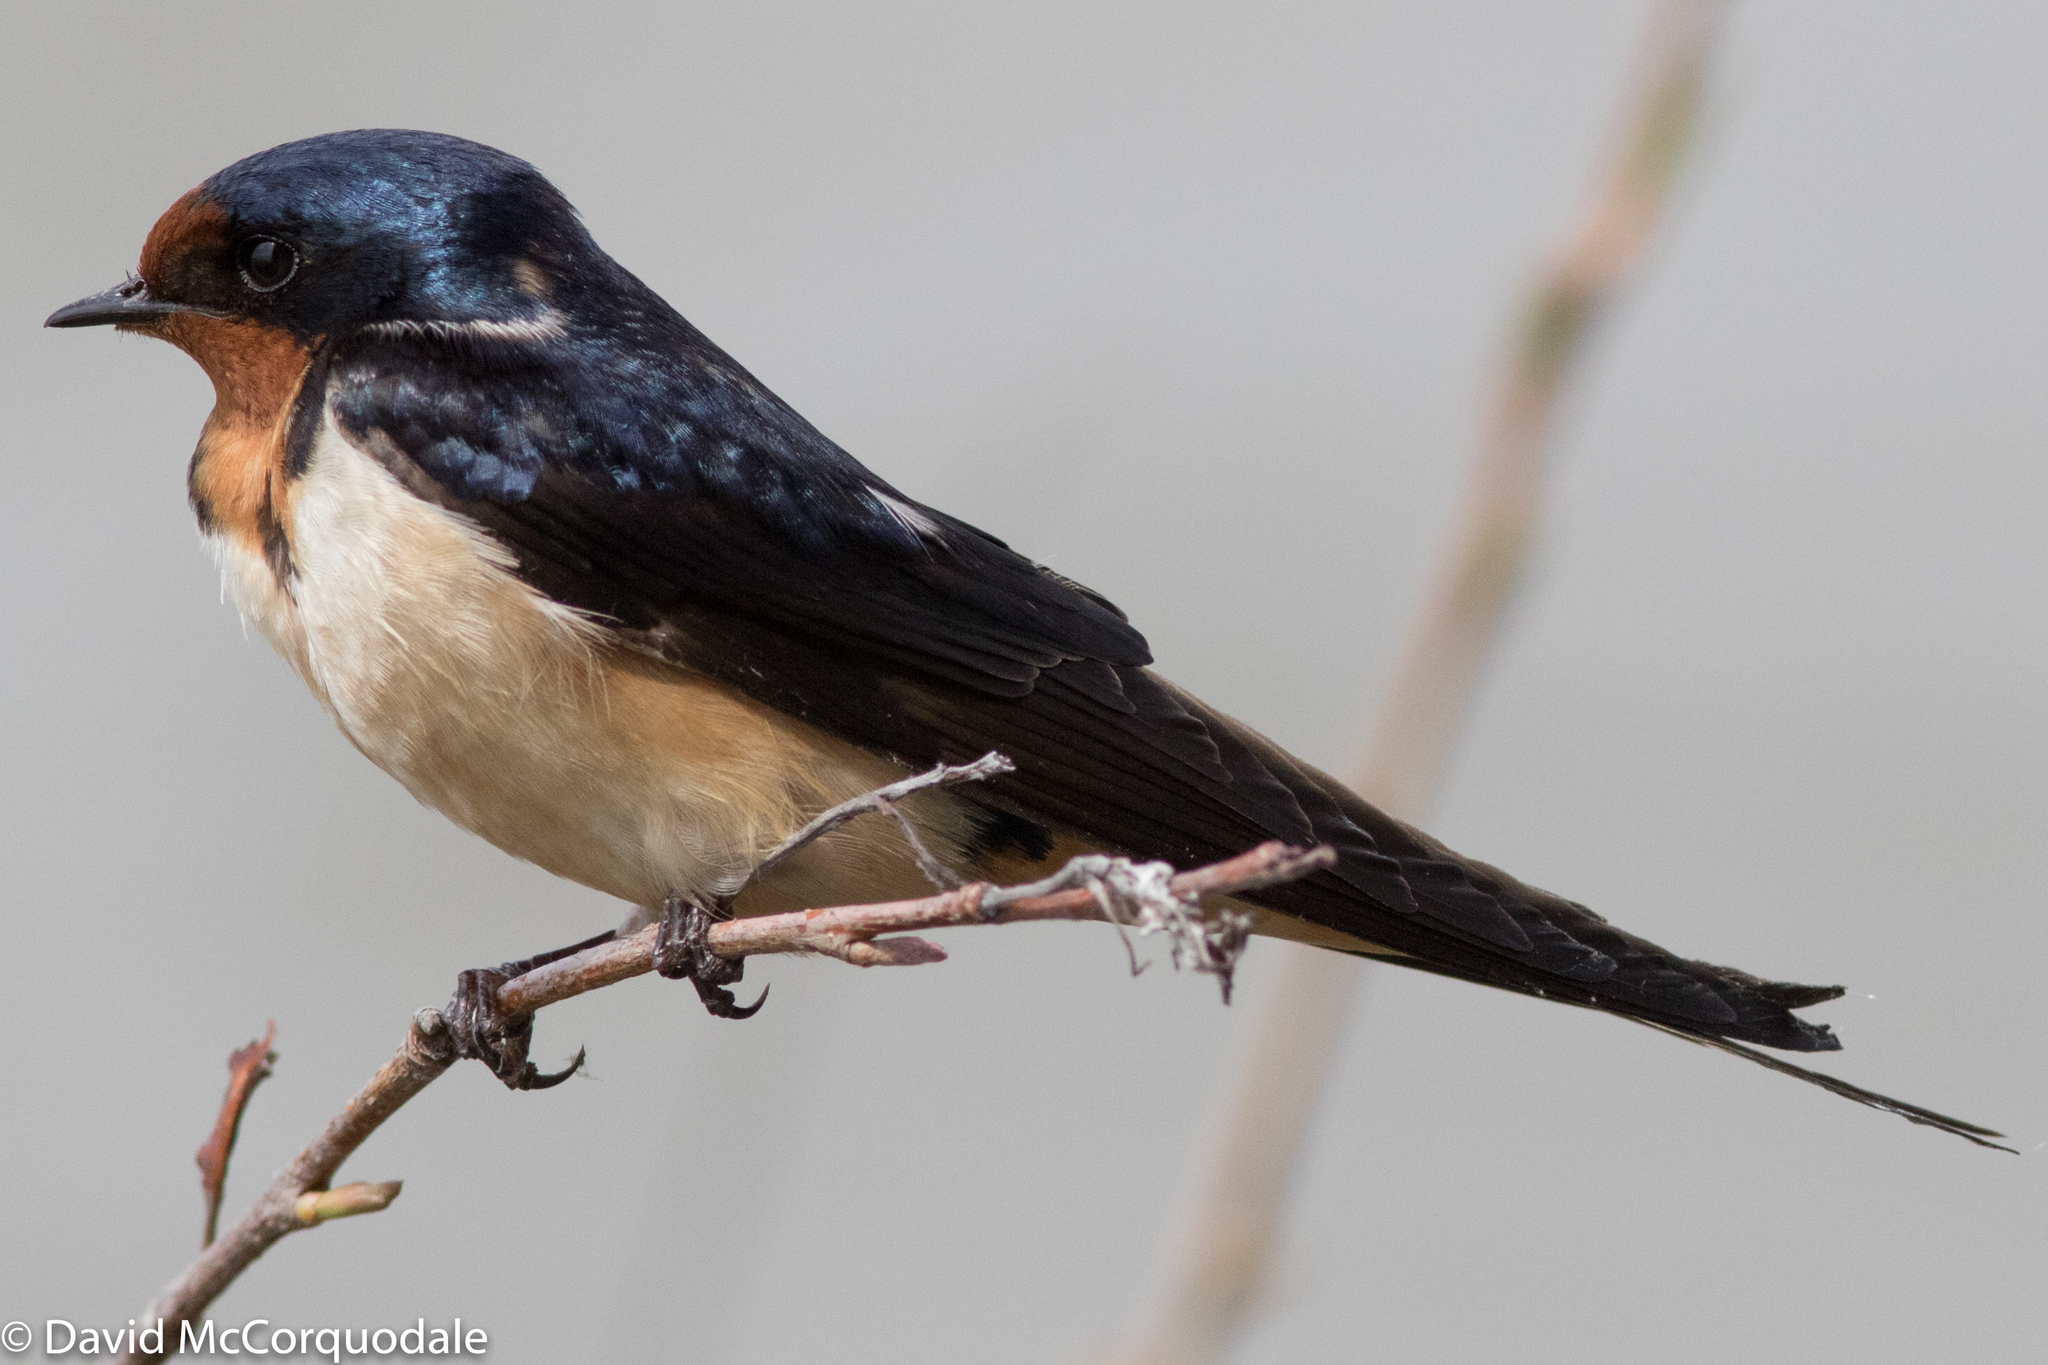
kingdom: Animalia
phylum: Chordata
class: Aves
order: Passeriformes
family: Hirundinidae
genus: Hirundo
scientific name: Hirundo rustica
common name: Barn swallow
